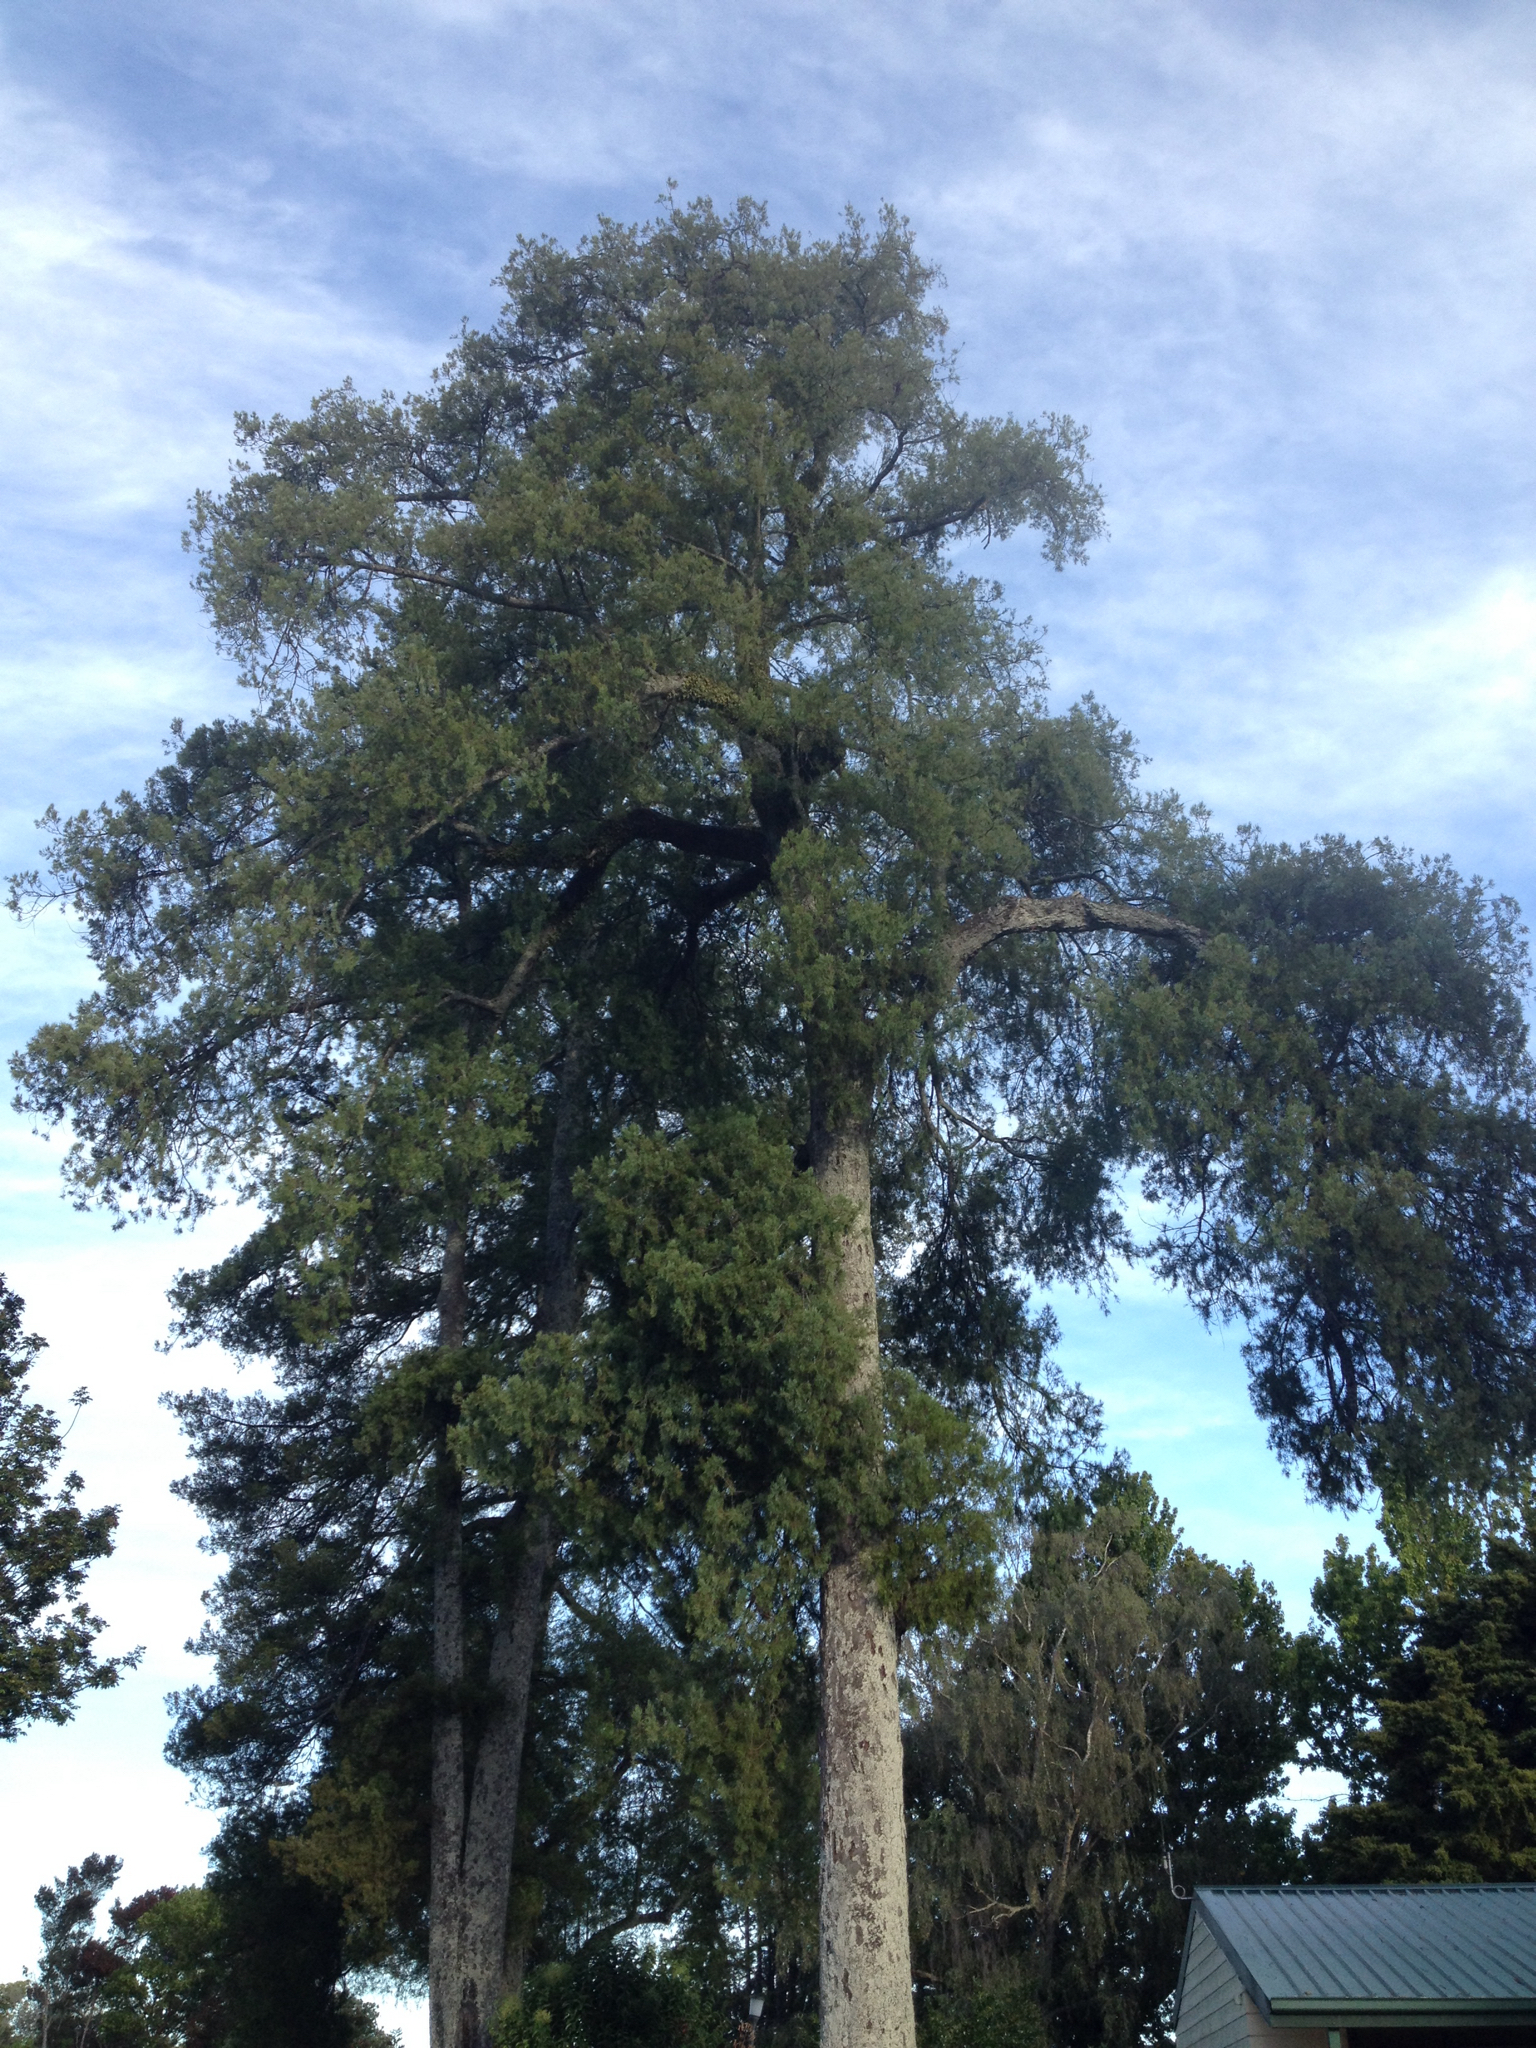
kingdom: Plantae
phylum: Tracheophyta
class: Pinopsida
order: Pinales
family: Podocarpaceae
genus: Dacrycarpus
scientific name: Dacrycarpus dacrydioides
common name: White pine
